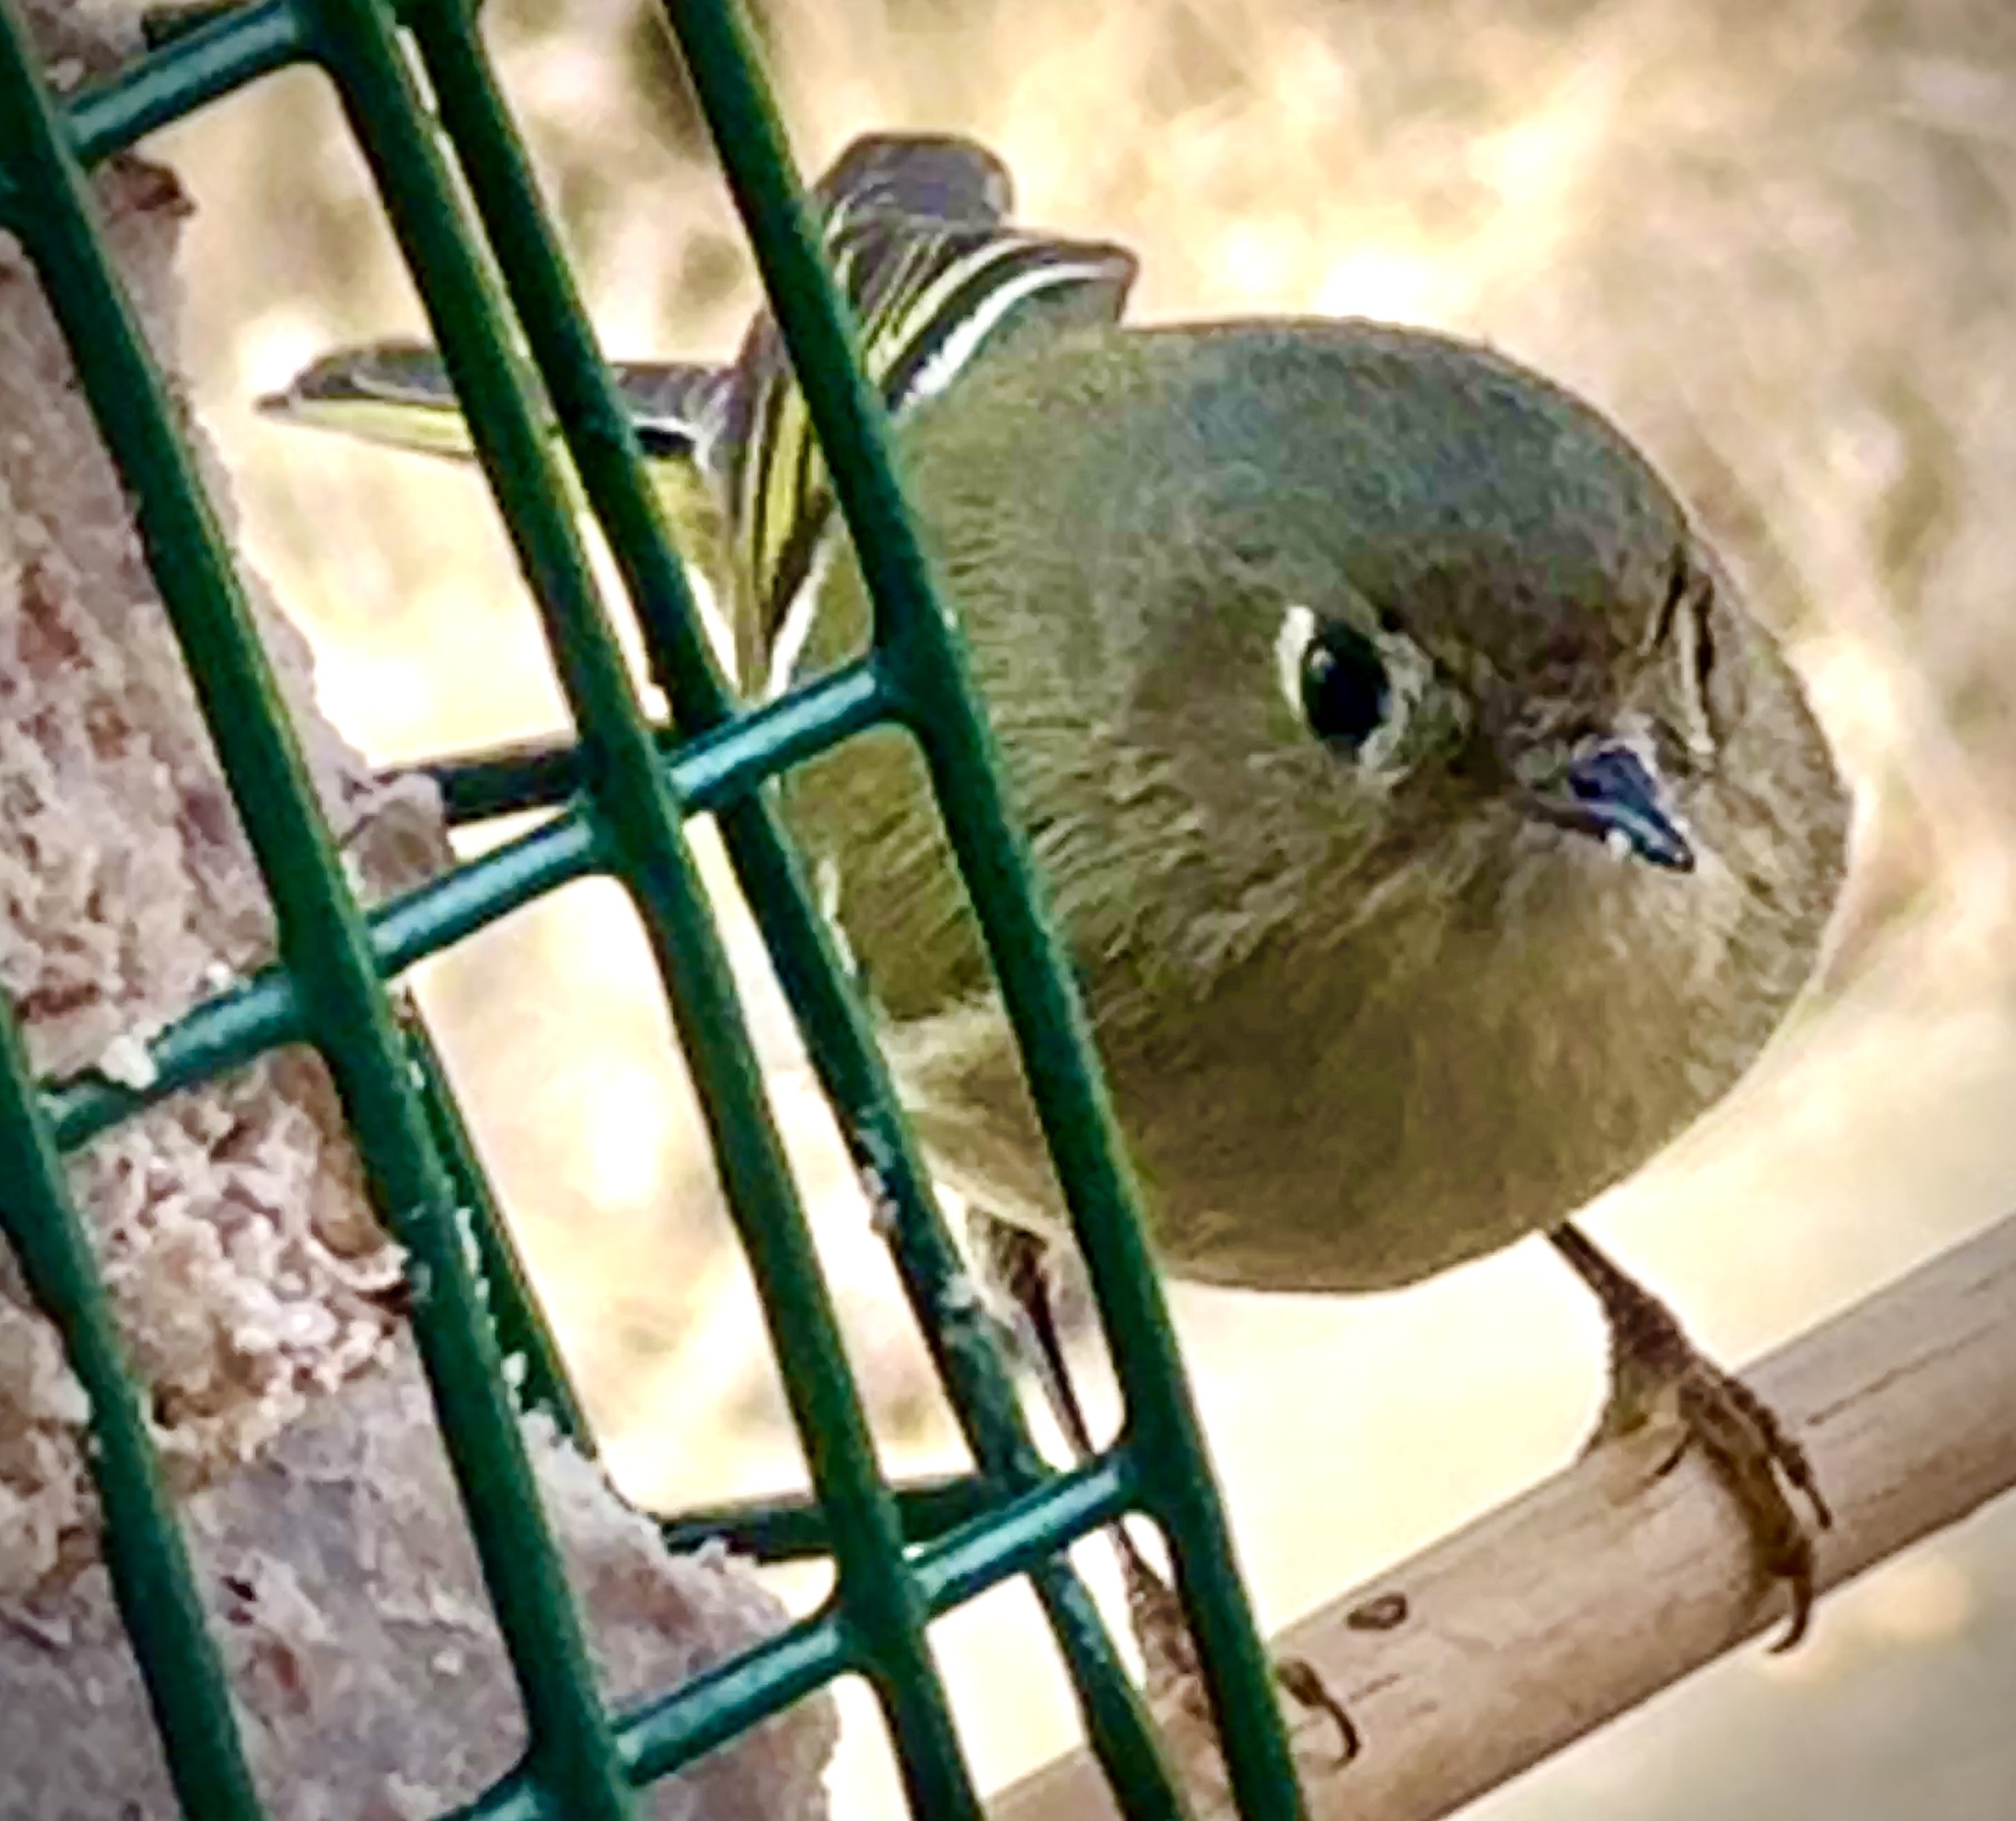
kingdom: Animalia
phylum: Chordata
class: Aves
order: Passeriformes
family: Regulidae
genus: Regulus
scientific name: Regulus calendula
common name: Ruby-crowned kinglet
